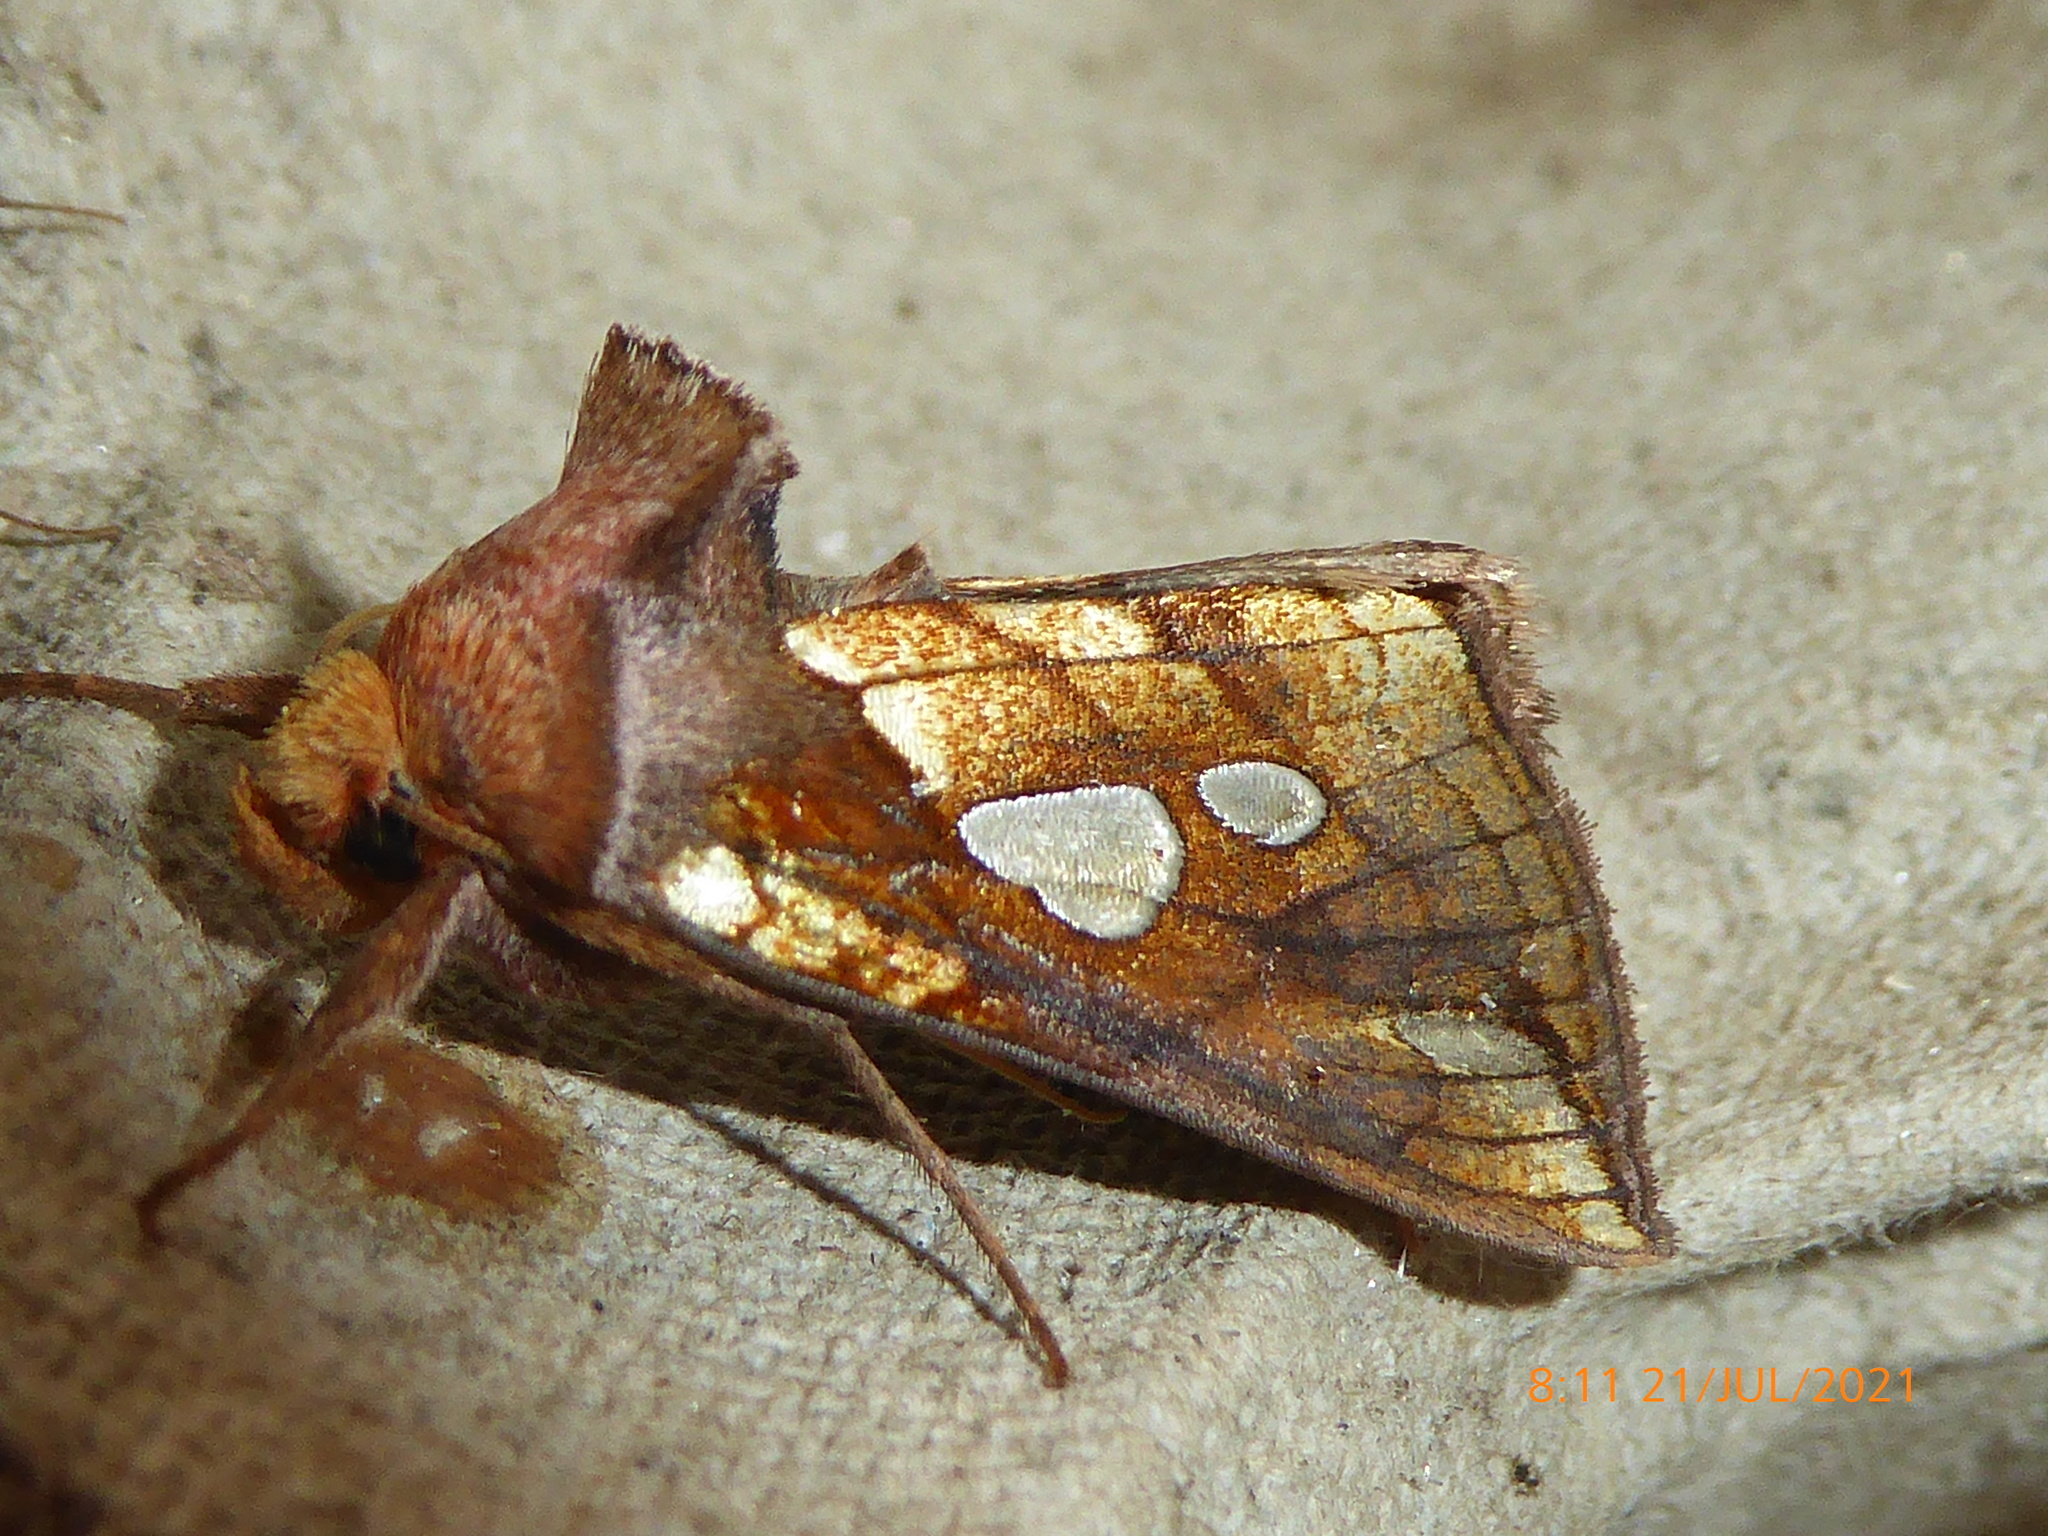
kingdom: Animalia
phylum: Arthropoda
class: Insecta
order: Lepidoptera
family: Noctuidae
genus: Plusia
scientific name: Plusia putnami
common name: Lempke's gold spot
